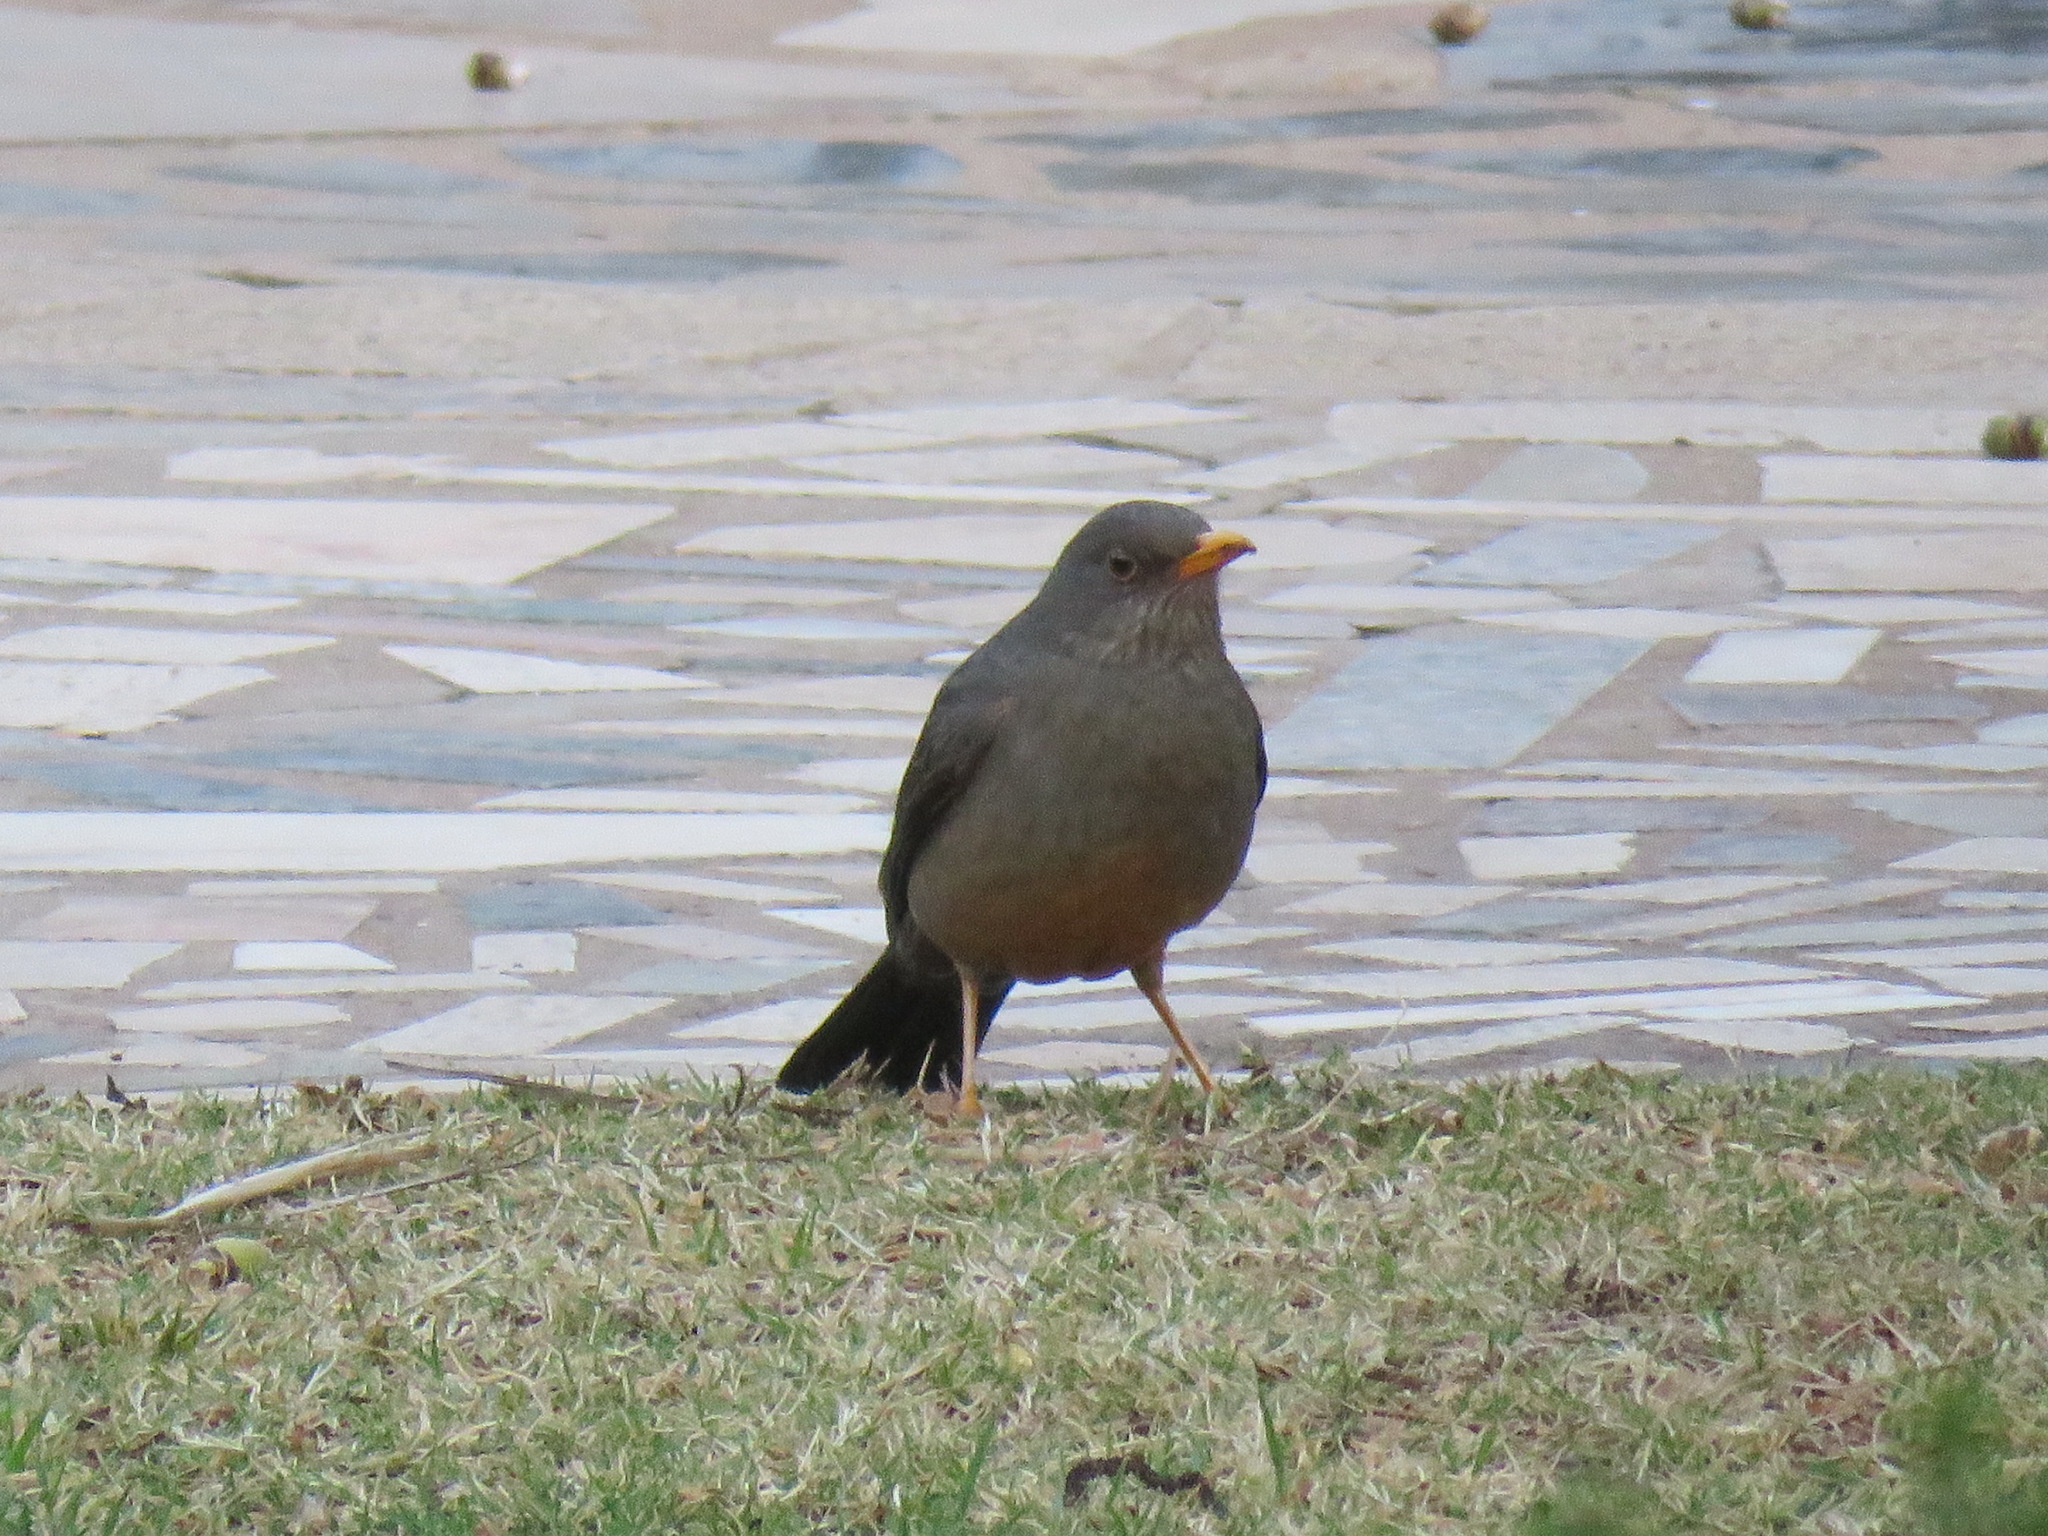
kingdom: Animalia
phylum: Chordata
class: Aves
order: Passeriformes
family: Turdidae
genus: Turdus
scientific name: Turdus smithi
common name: Karoo thrush
